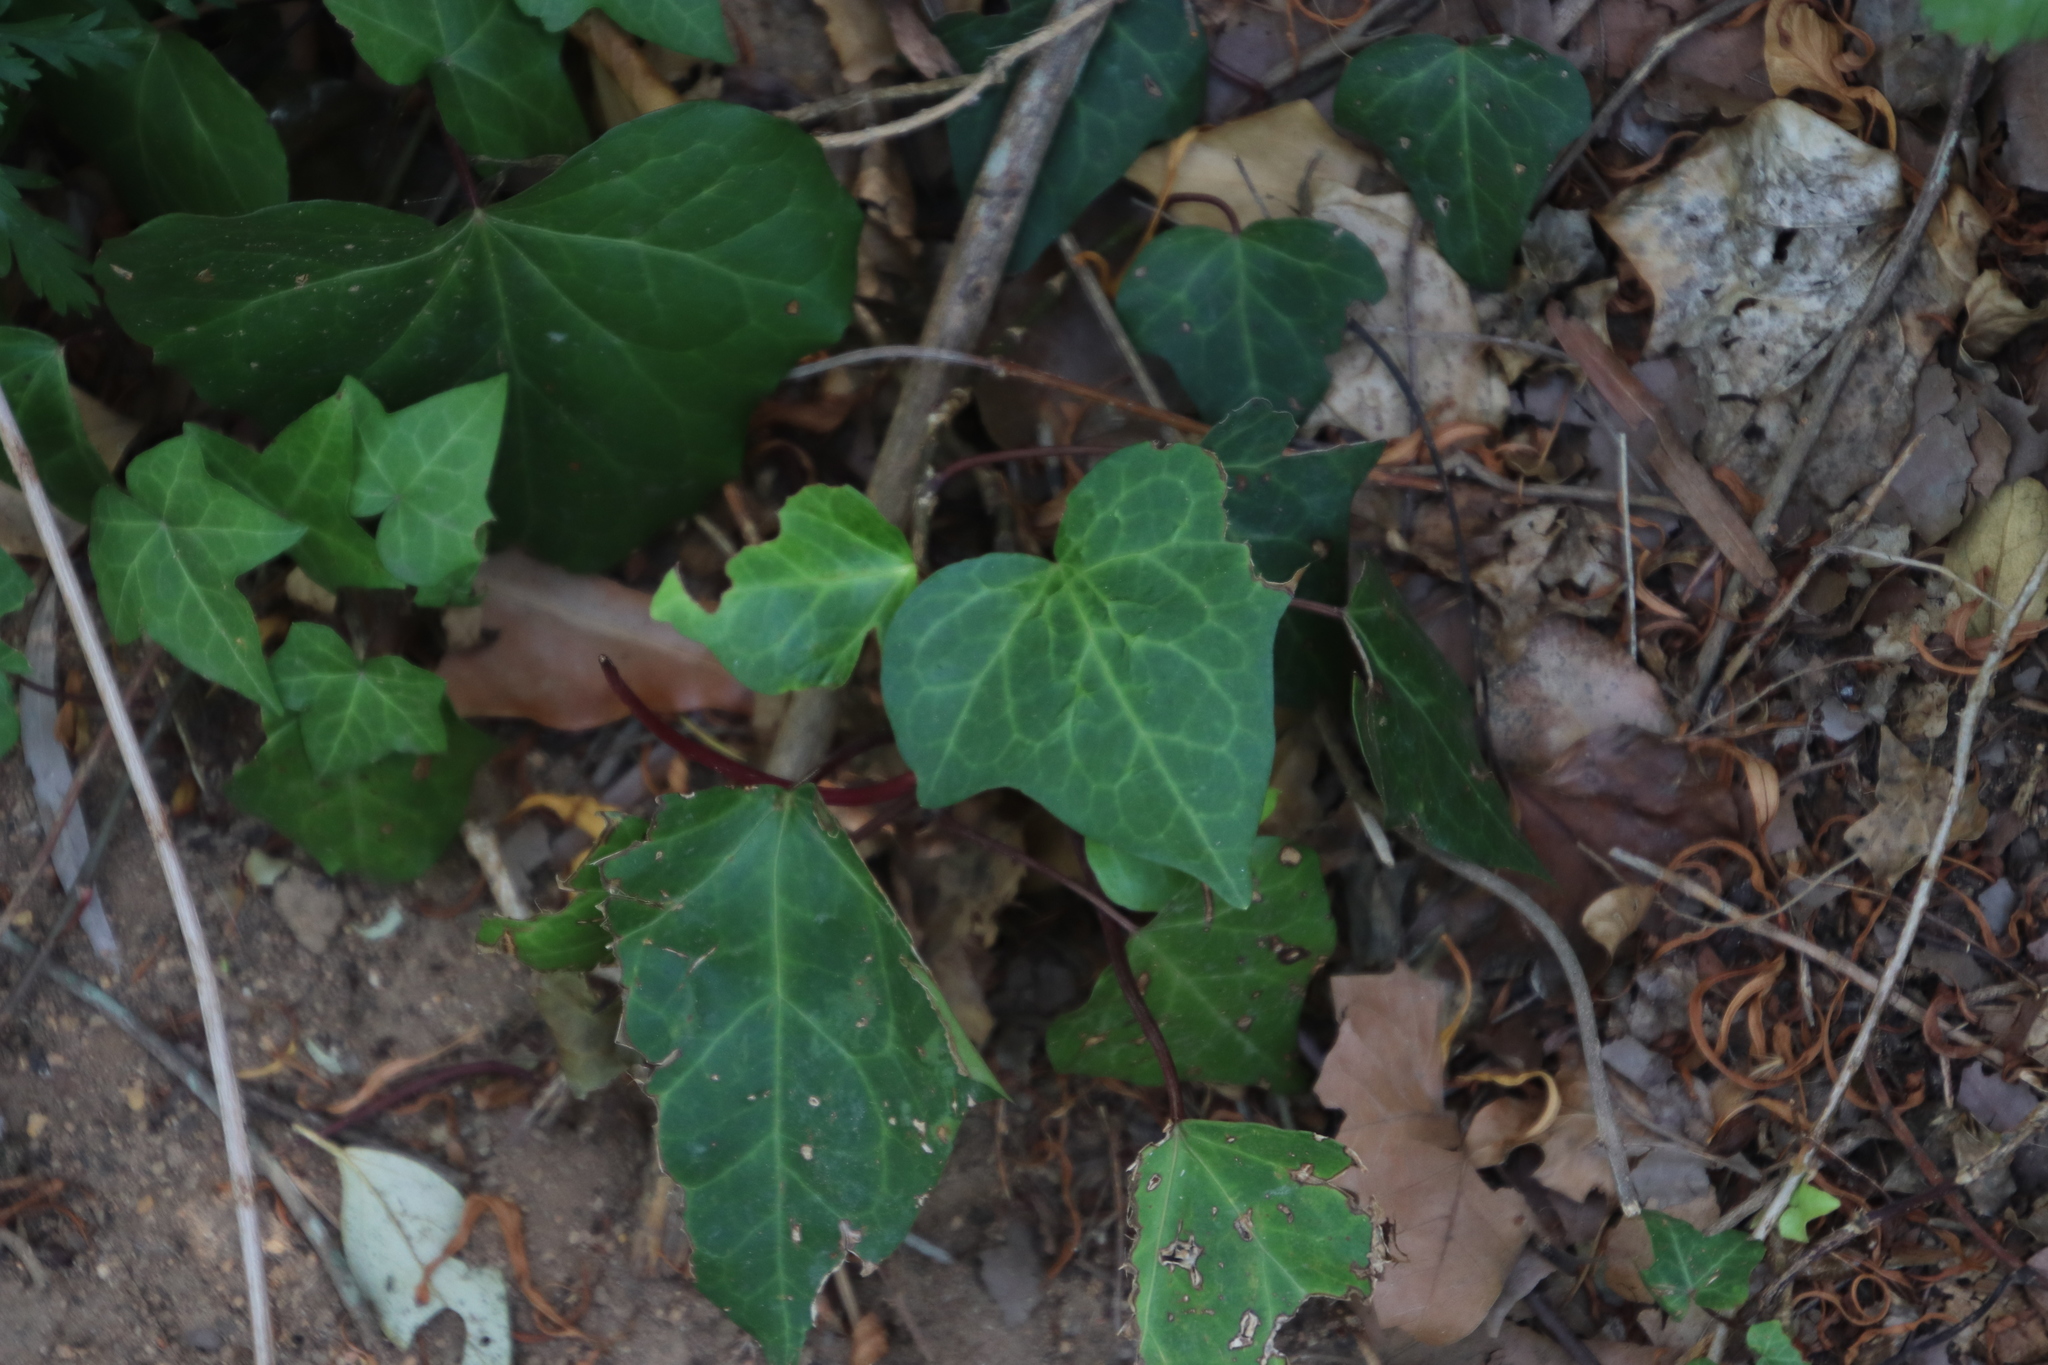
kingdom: Plantae
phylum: Tracheophyta
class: Magnoliopsida
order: Apiales
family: Araliaceae
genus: Hedera
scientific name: Hedera canariensis
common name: Madeira ivy
